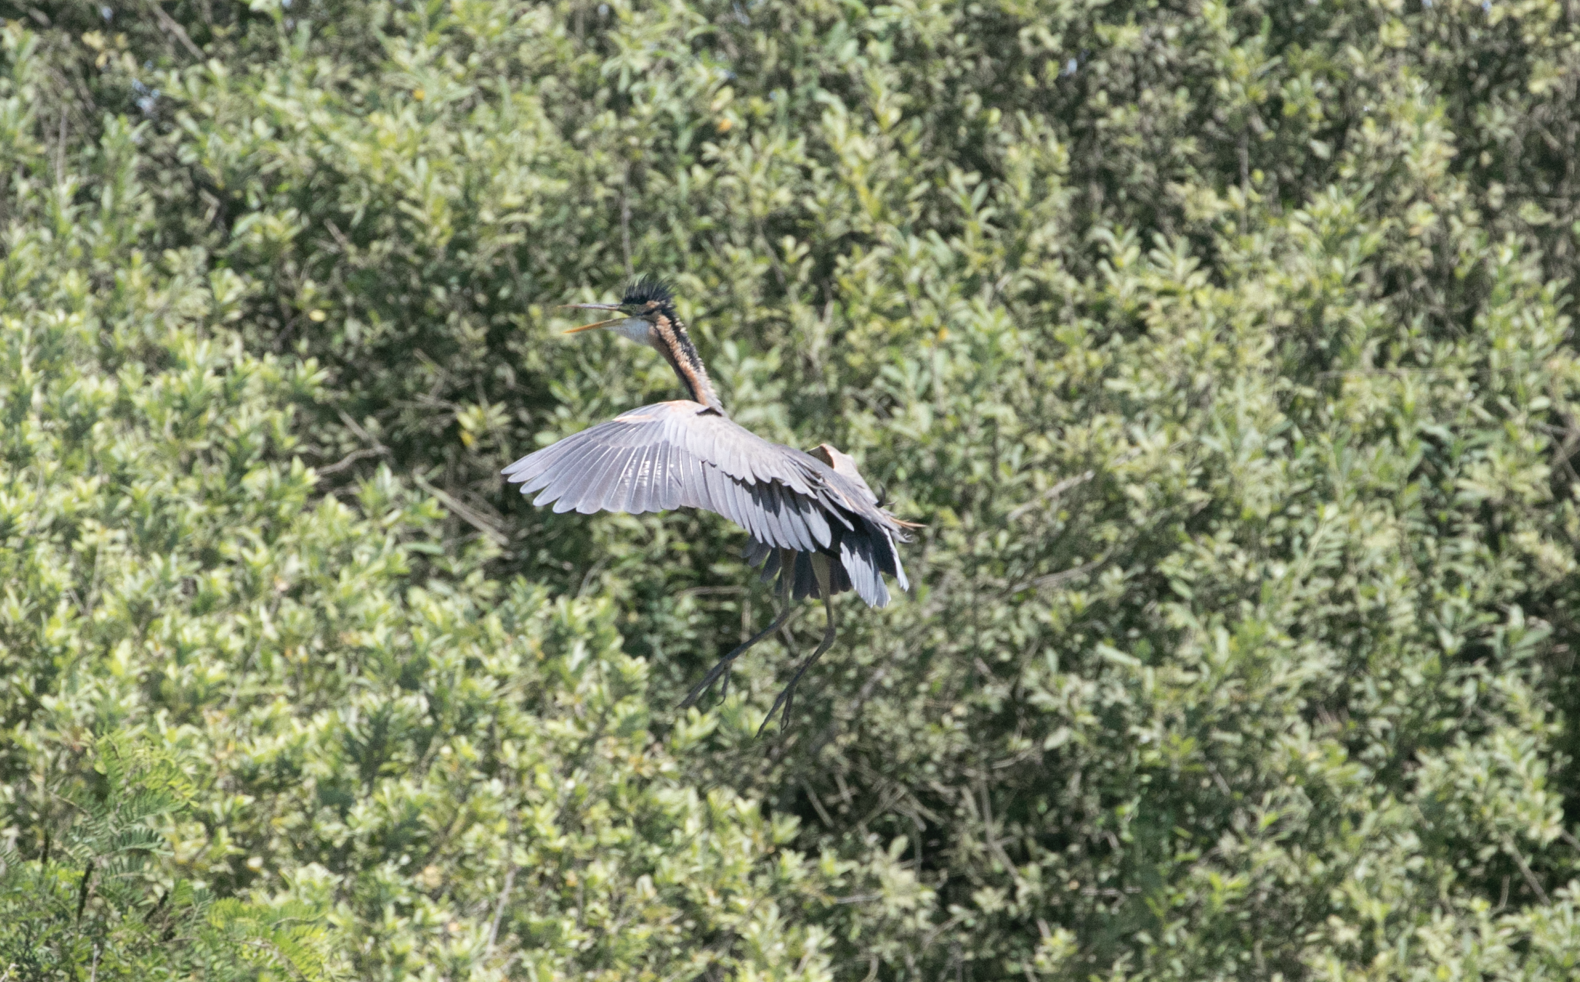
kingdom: Animalia
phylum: Chordata
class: Aves
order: Pelecaniformes
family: Ardeidae
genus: Ardea
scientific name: Ardea purpurea
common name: Purple heron
